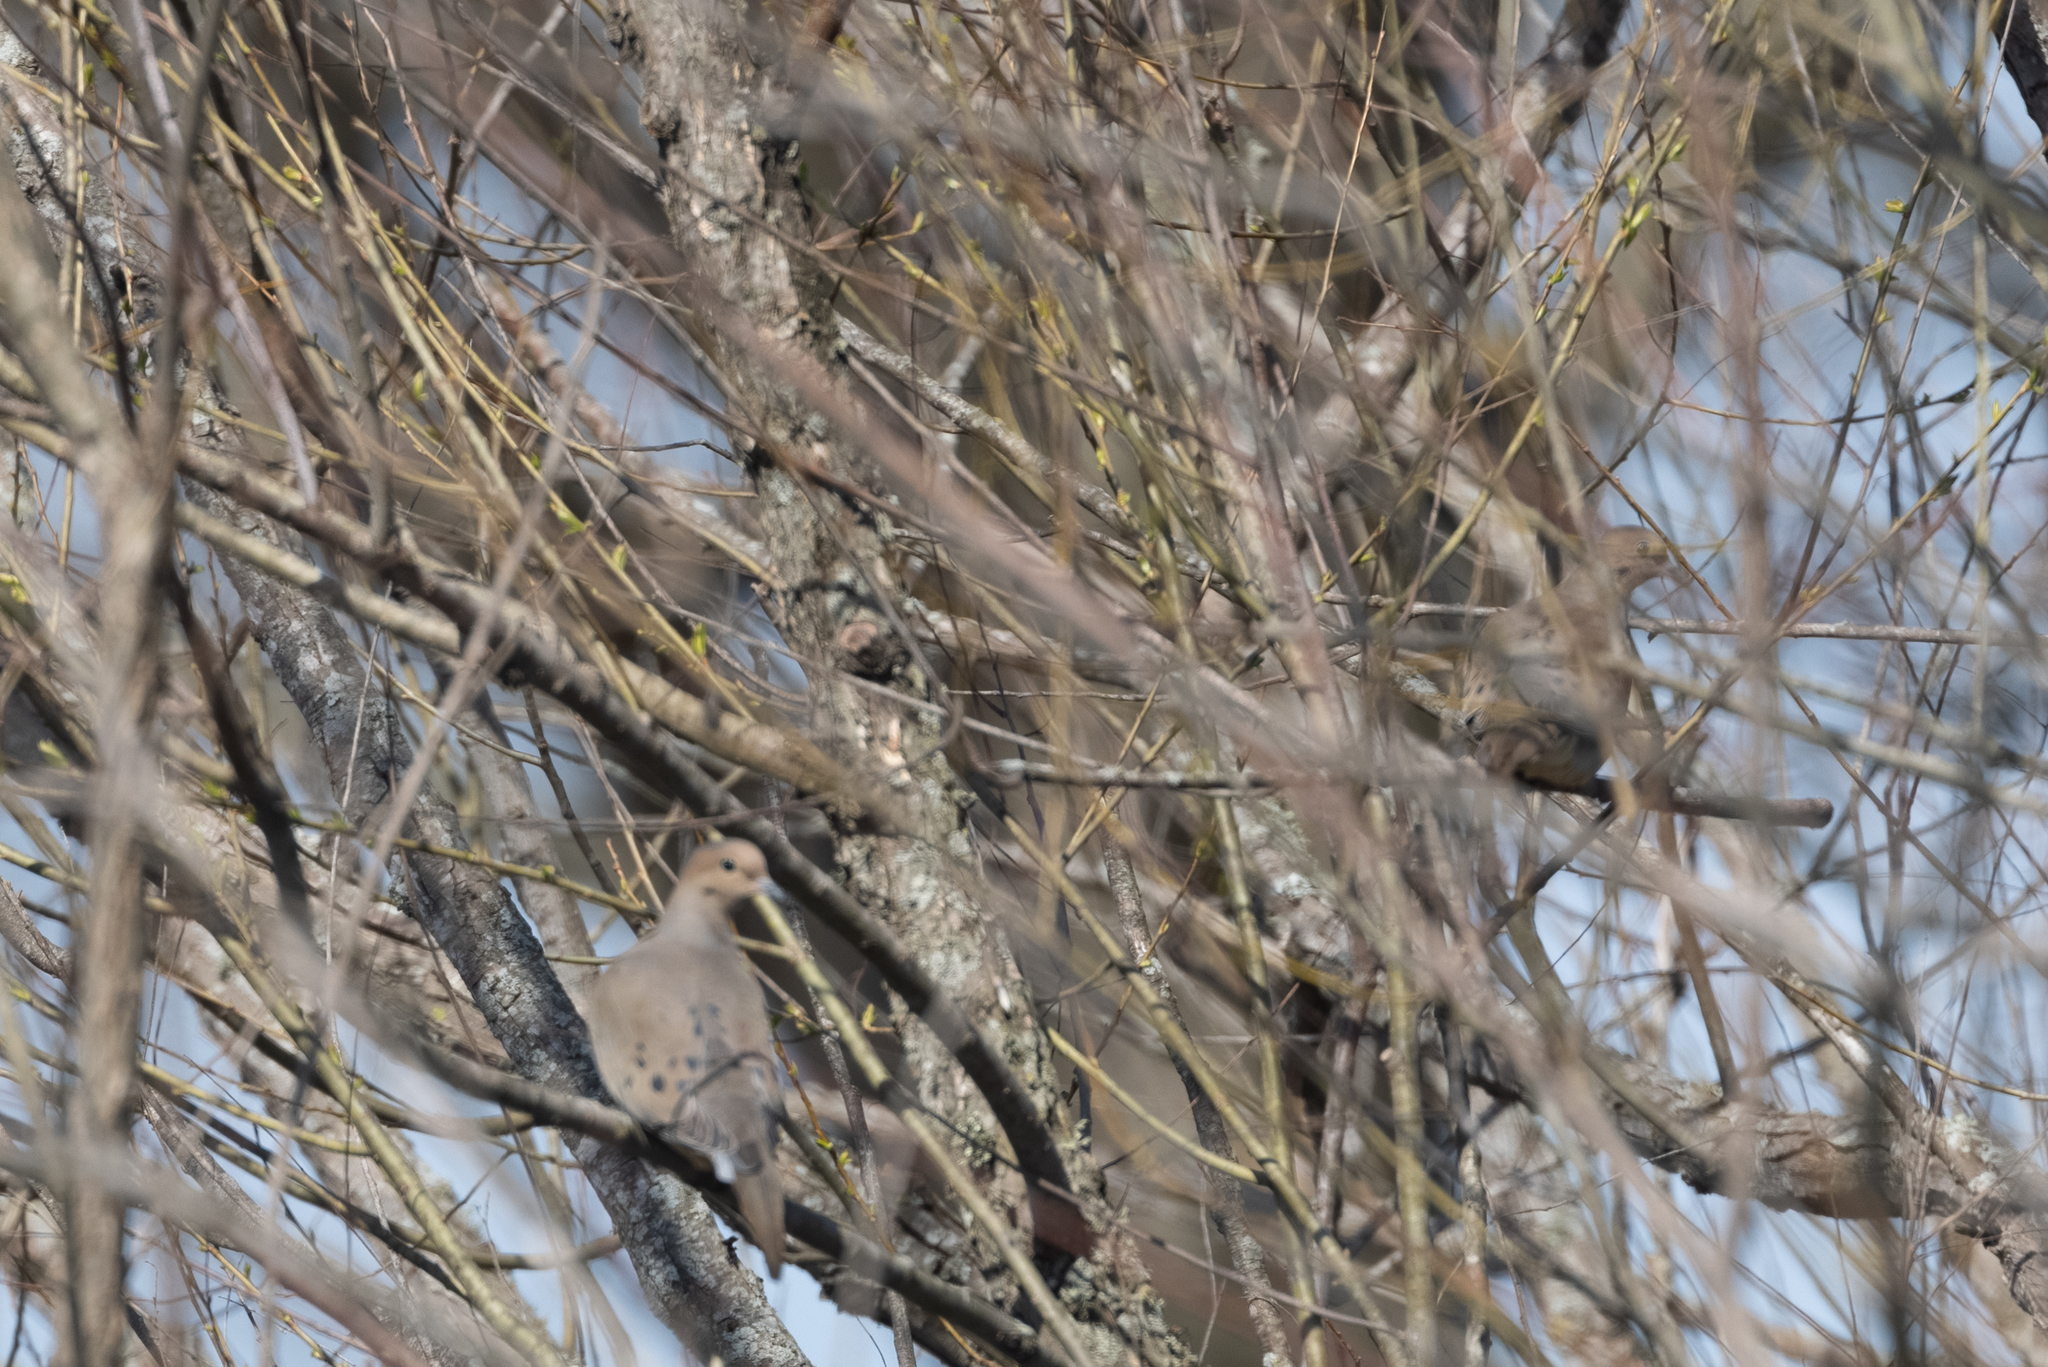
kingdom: Animalia
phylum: Chordata
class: Aves
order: Columbiformes
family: Columbidae
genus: Zenaida
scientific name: Zenaida macroura
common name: Mourning dove
